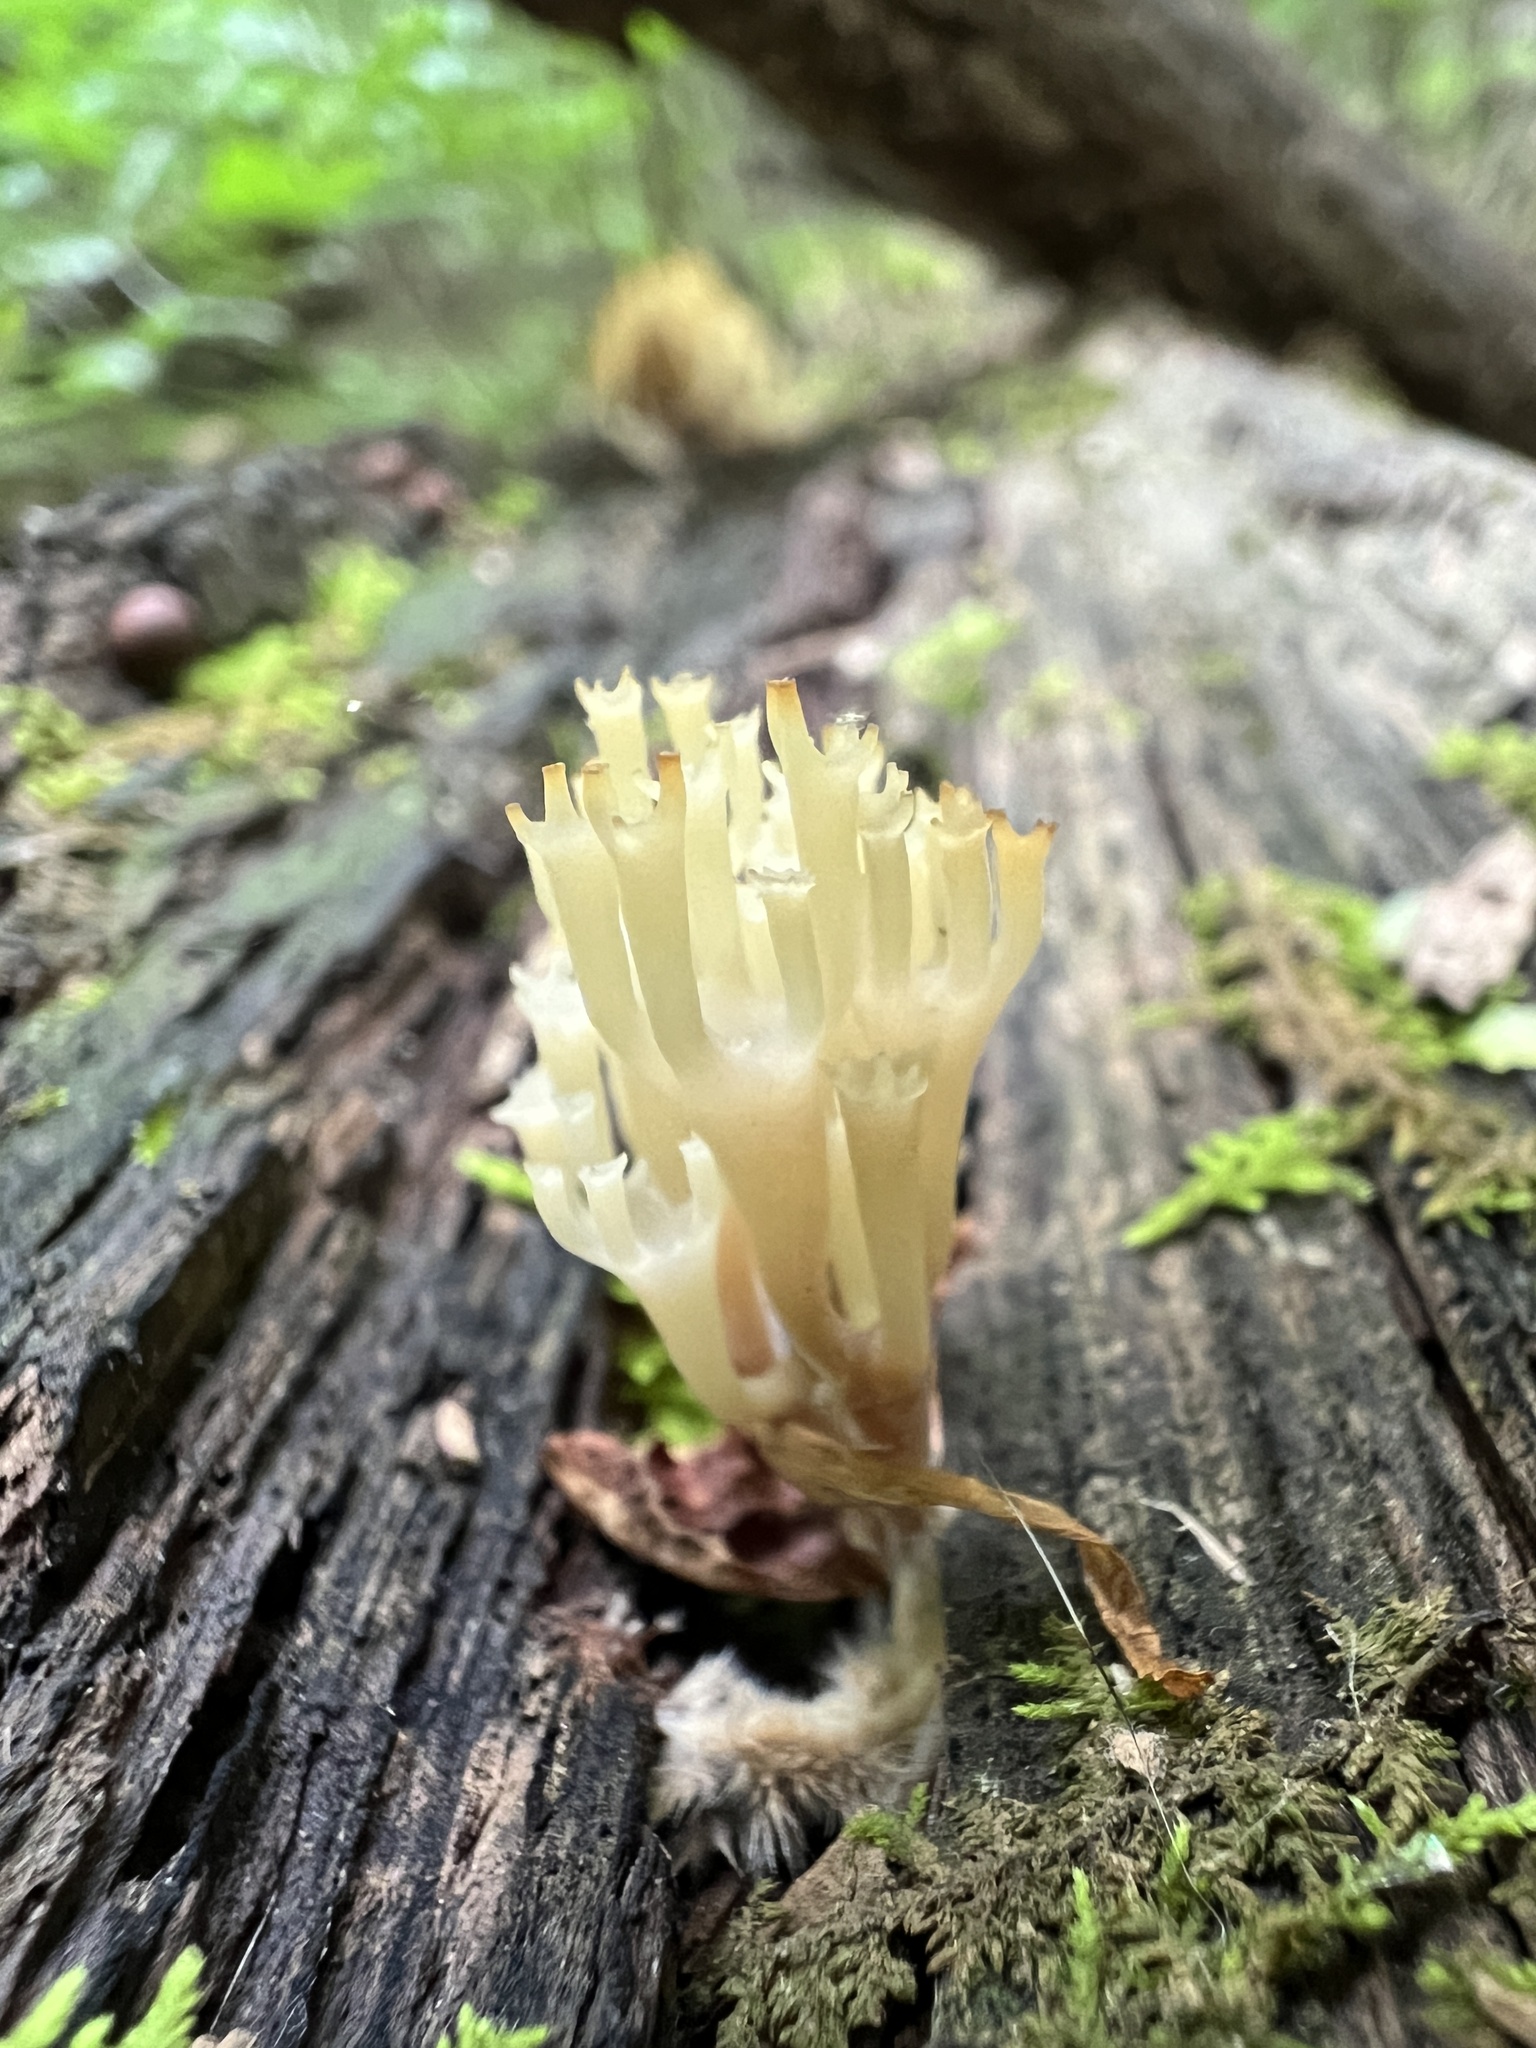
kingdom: Fungi
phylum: Basidiomycota
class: Agaricomycetes
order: Russulales
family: Auriscalpiaceae
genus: Artomyces
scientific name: Artomyces pyxidatus
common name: Crown-tipped coral fungus
